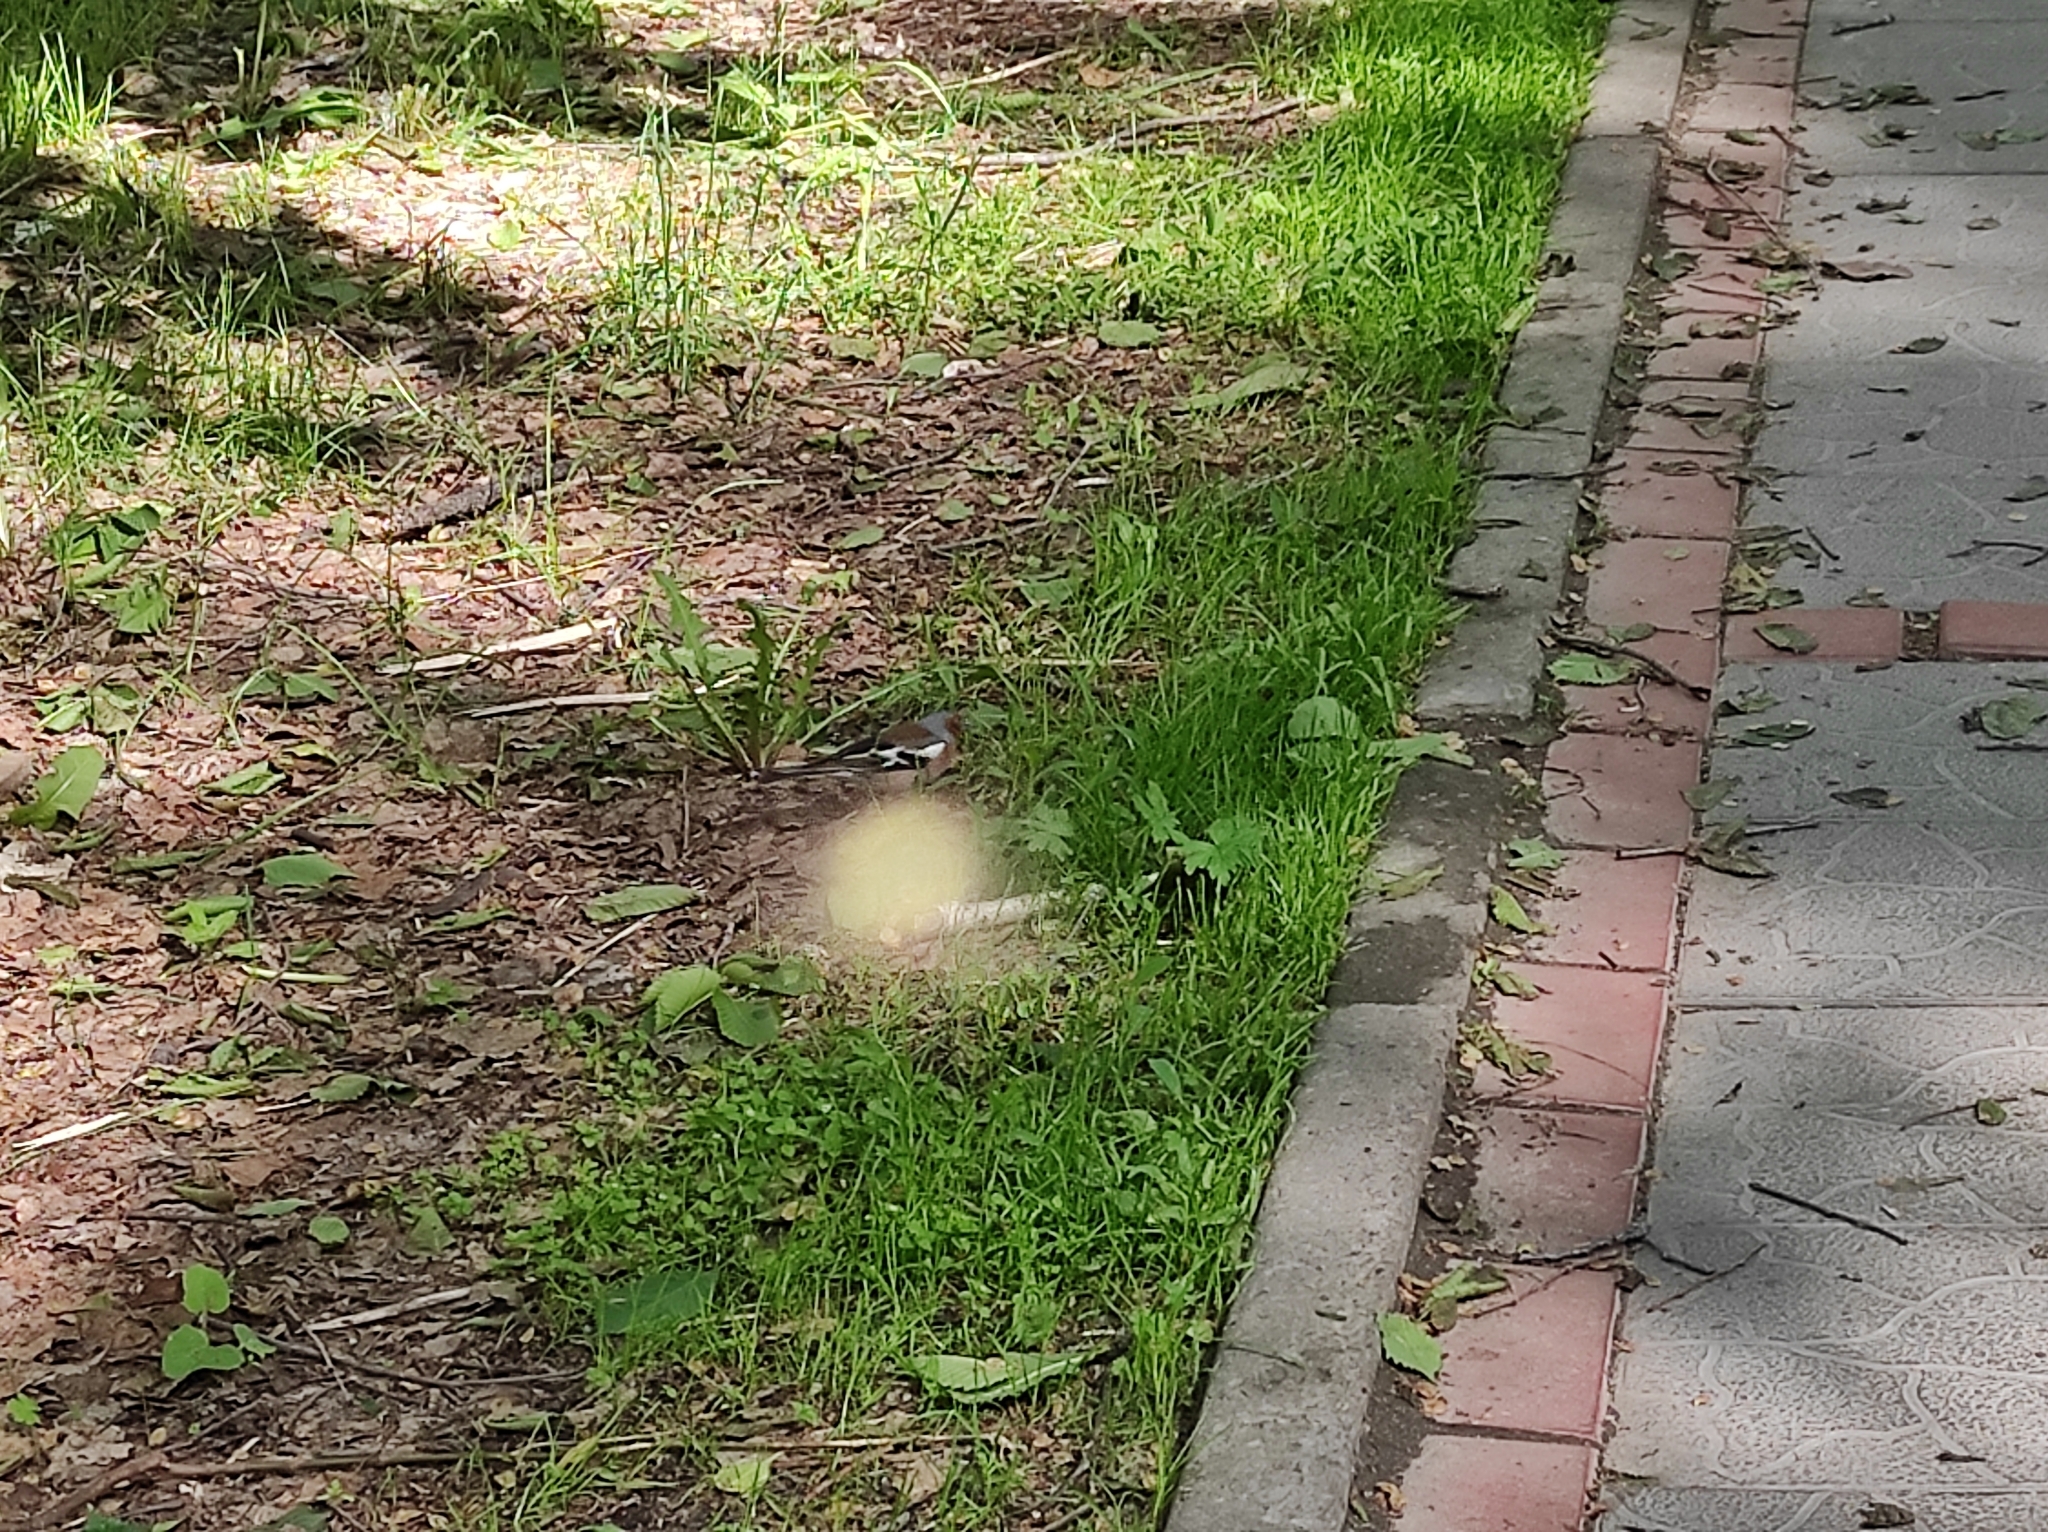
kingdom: Animalia
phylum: Chordata
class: Aves
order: Passeriformes
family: Fringillidae
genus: Fringilla
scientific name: Fringilla coelebs
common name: Common chaffinch
